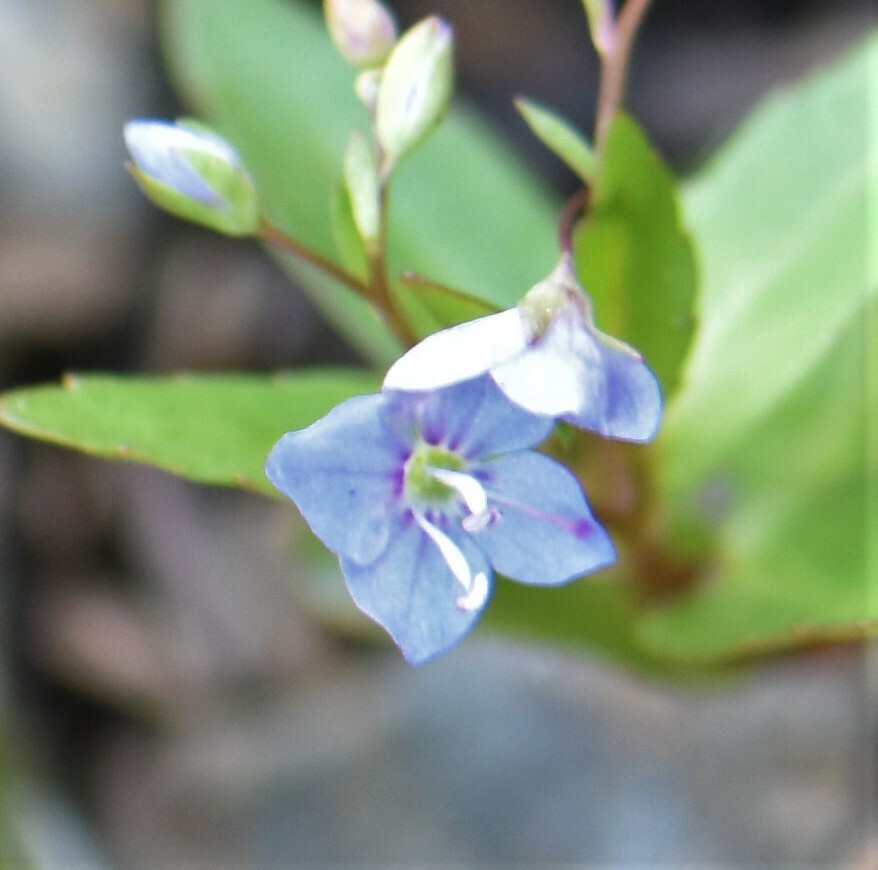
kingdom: Plantae
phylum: Tracheophyta
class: Magnoliopsida
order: Lamiales
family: Plantaginaceae
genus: Veronica
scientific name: Veronica americana
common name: American brooklime
